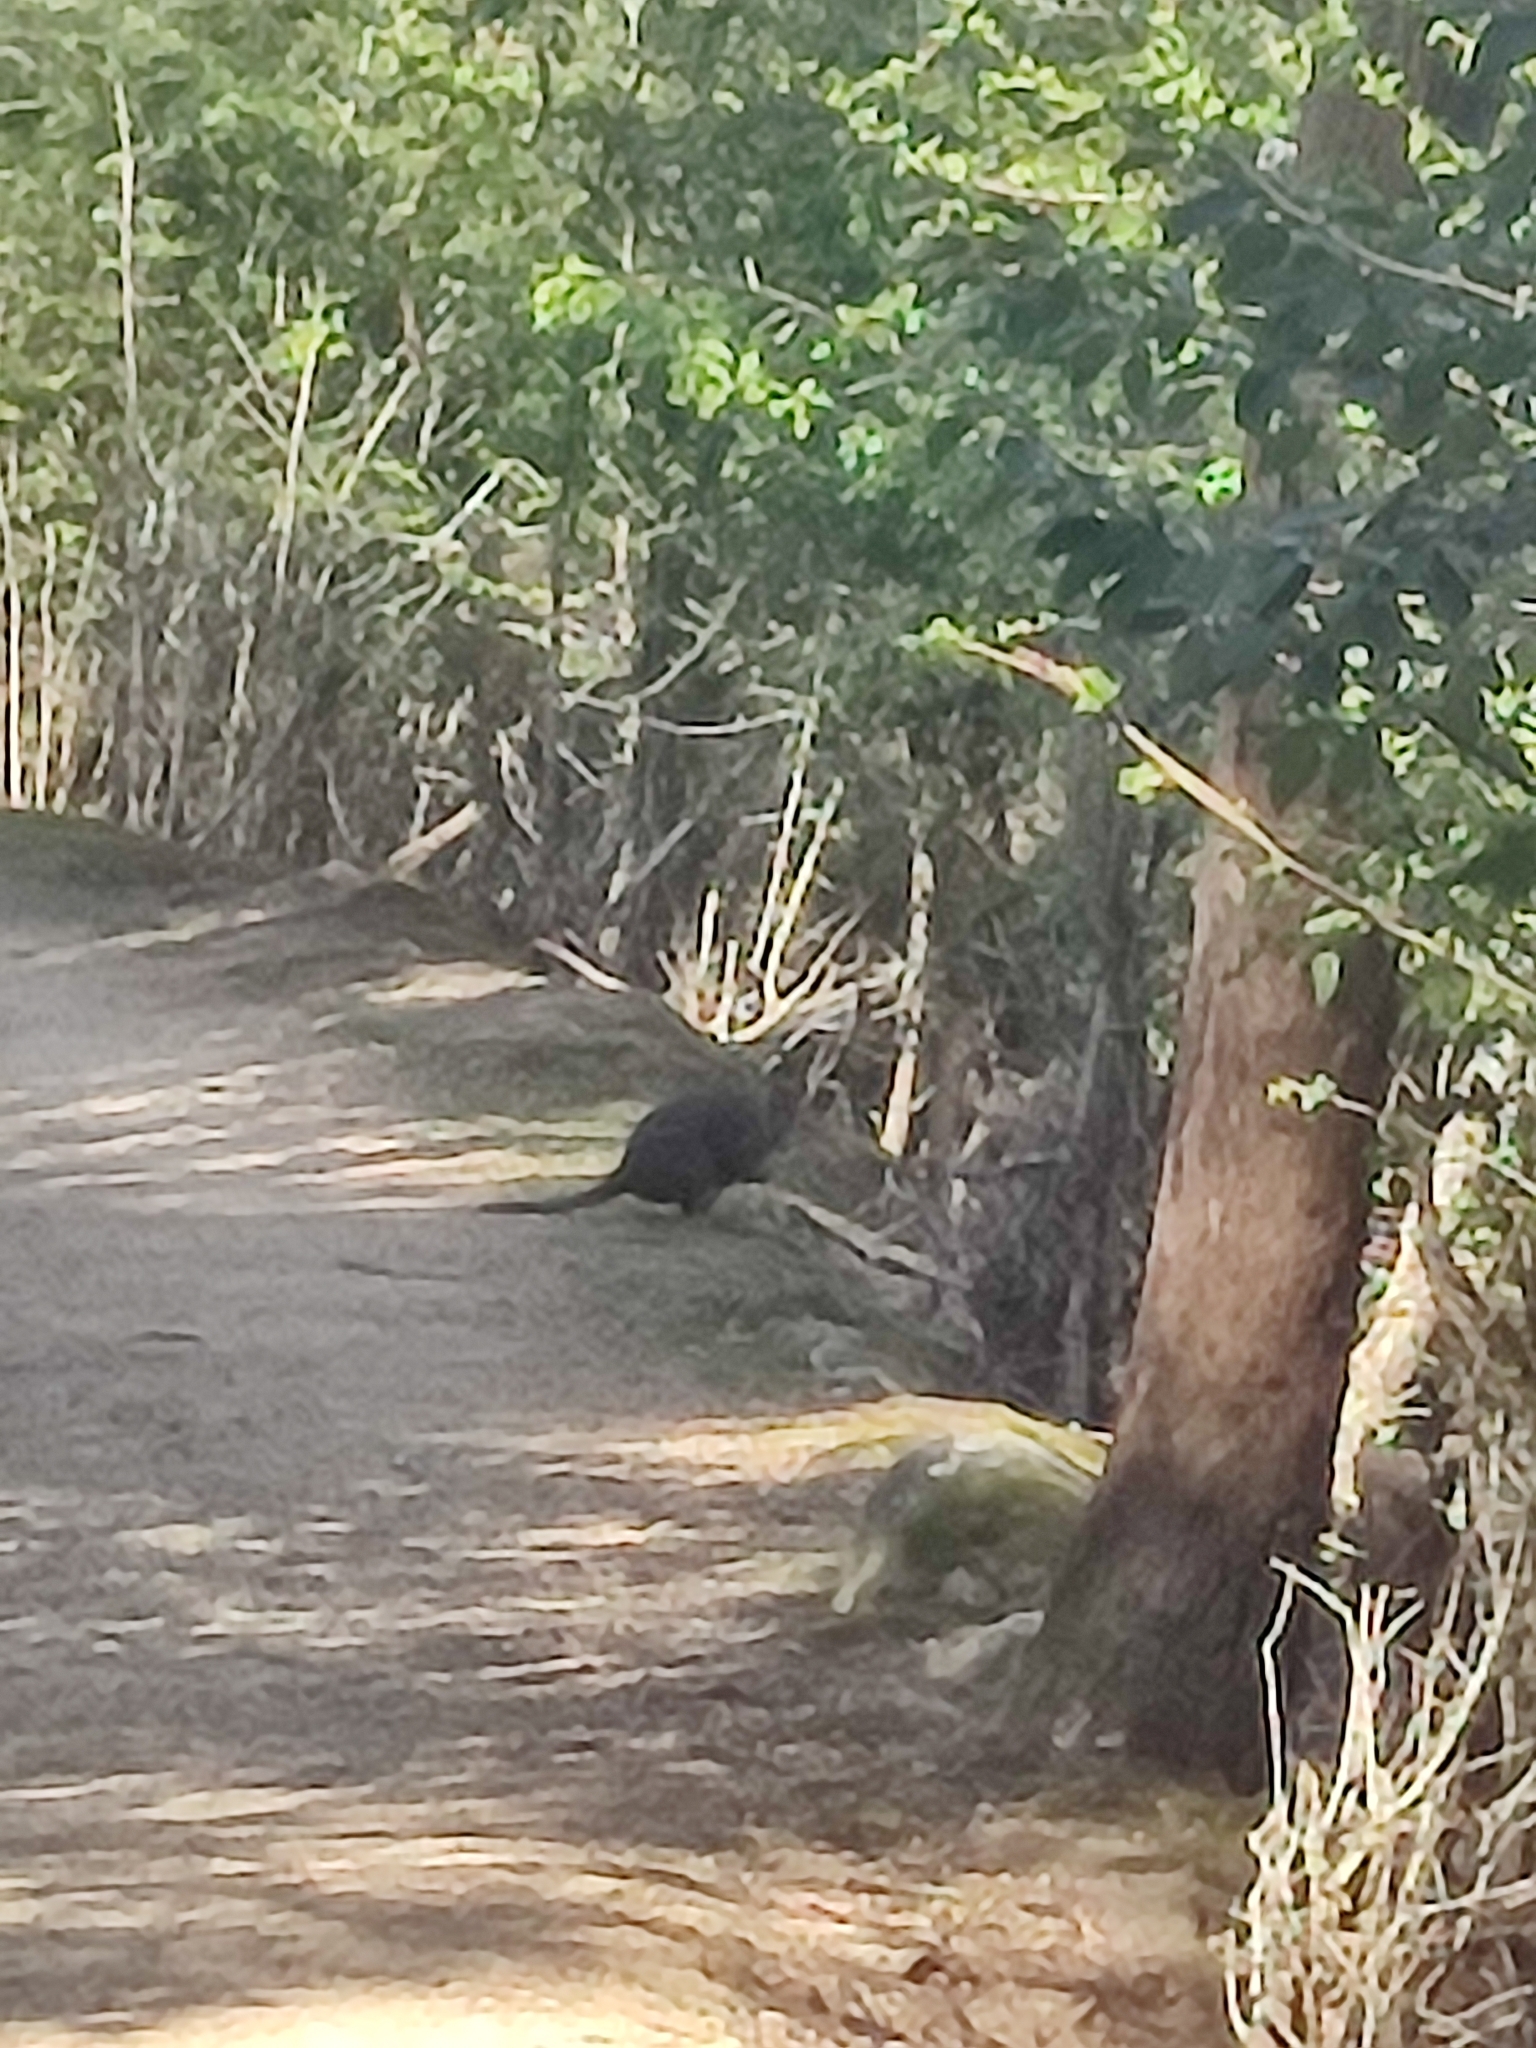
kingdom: Animalia
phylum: Chordata
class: Mammalia
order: Diprotodontia
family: Macropodidae
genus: Thylogale
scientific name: Thylogale billardierii
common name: Tasmanian pademelon
